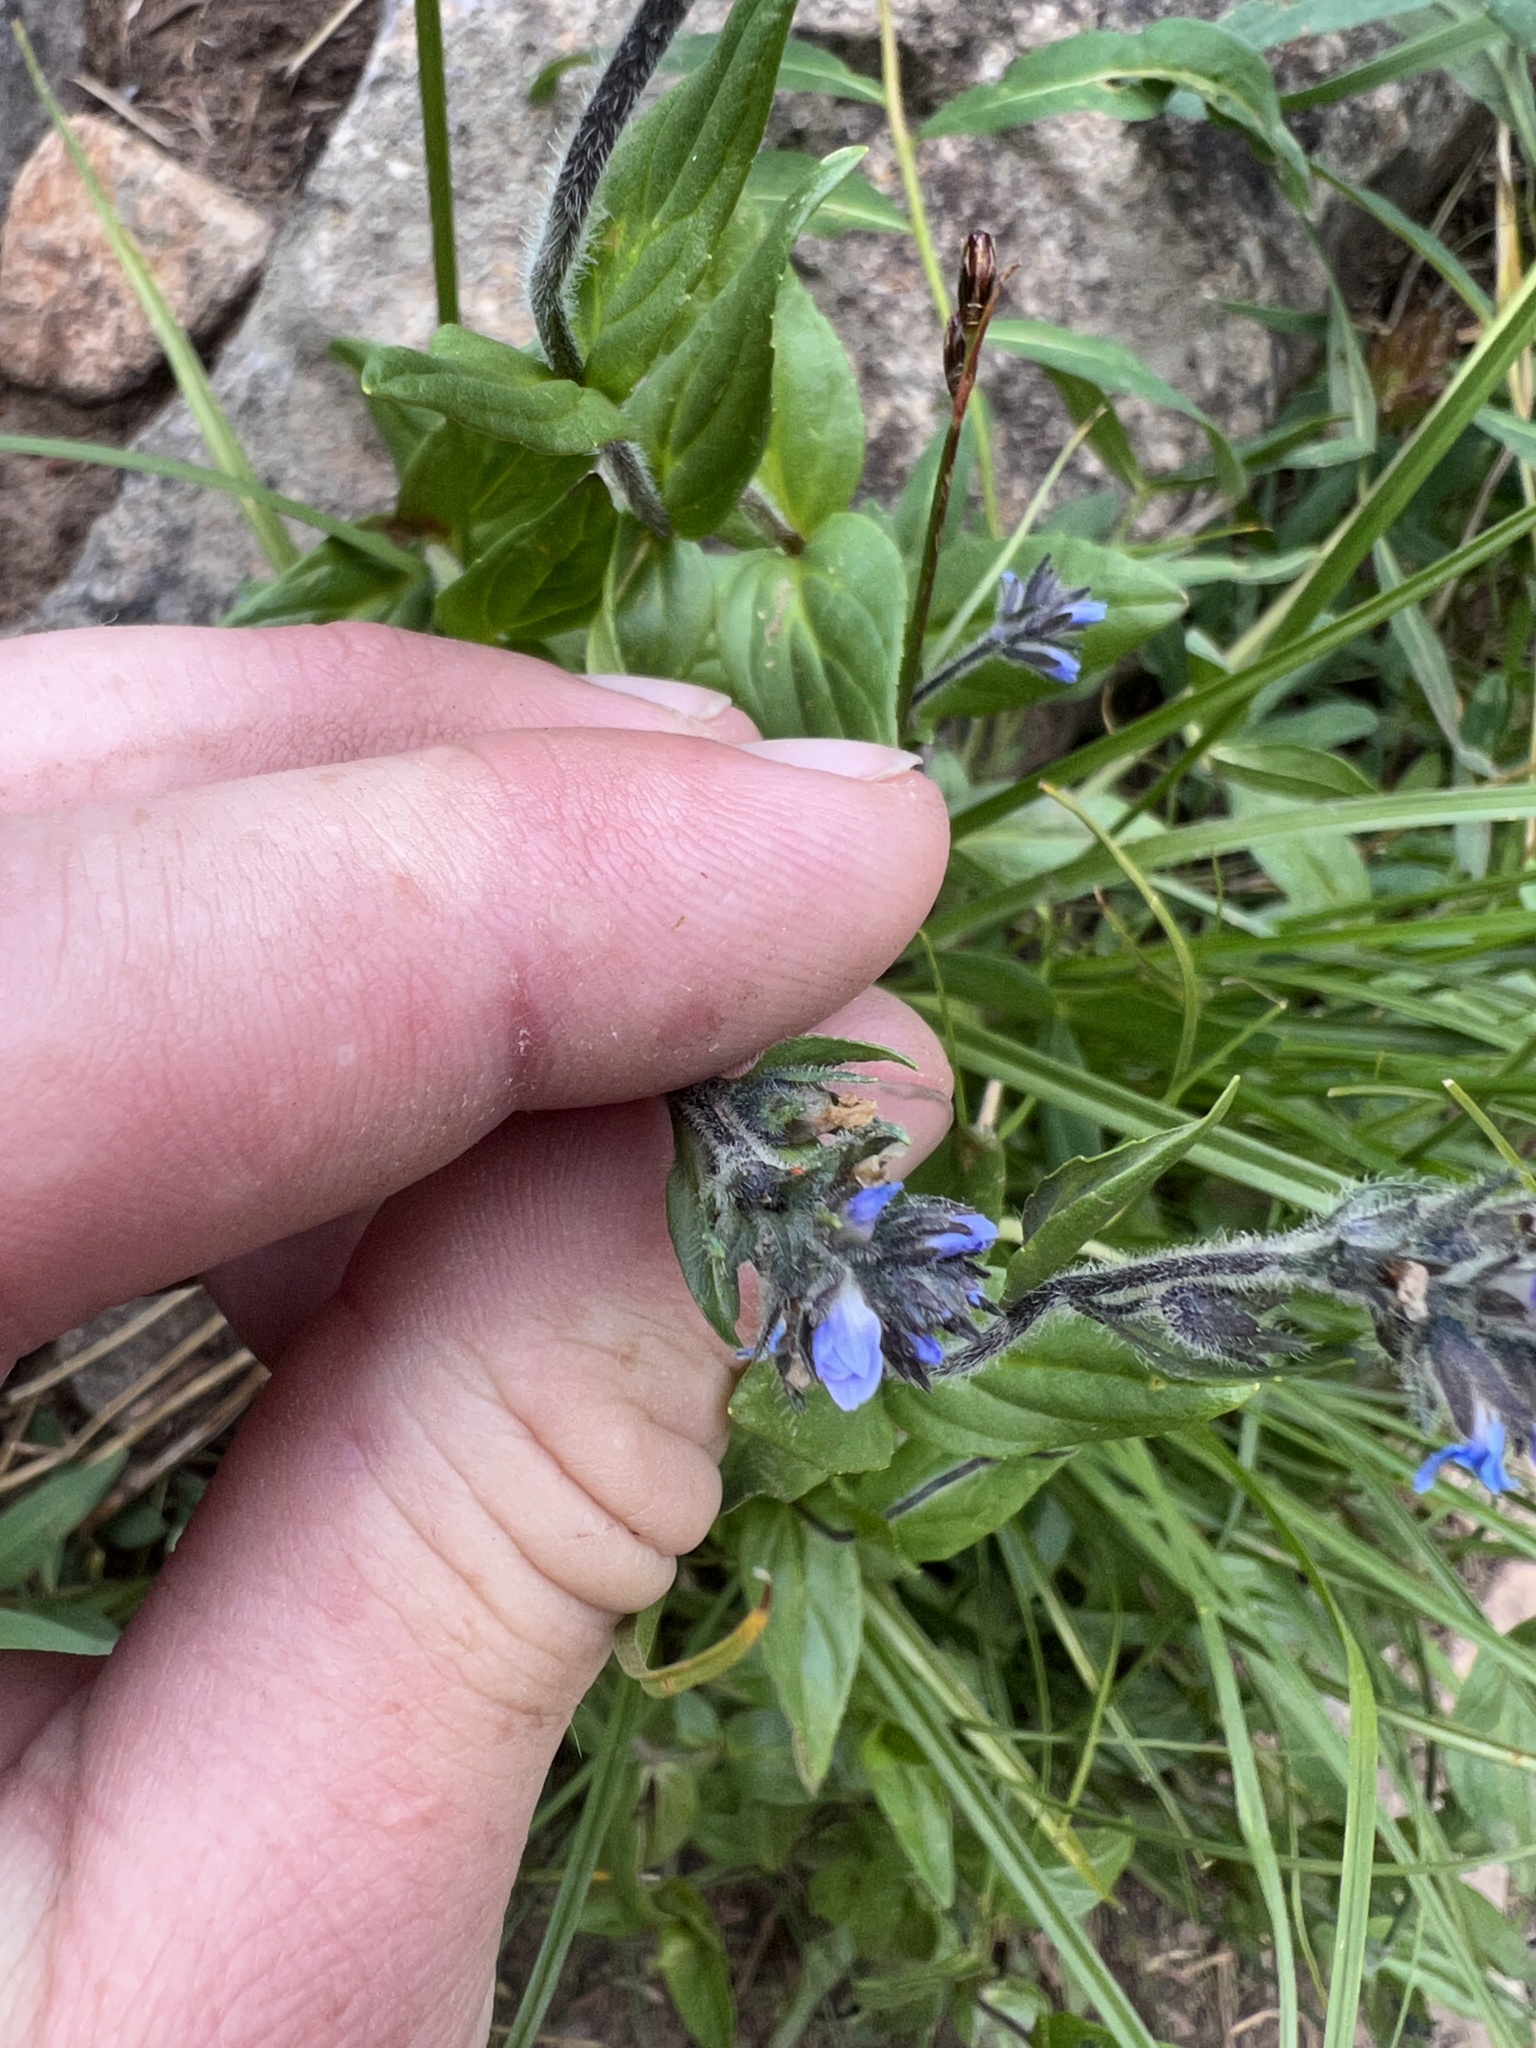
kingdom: Plantae
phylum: Tracheophyta
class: Magnoliopsida
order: Lamiales
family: Plantaginaceae
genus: Veronica
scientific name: Veronica wormskjoldii
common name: American alpine speedwell
